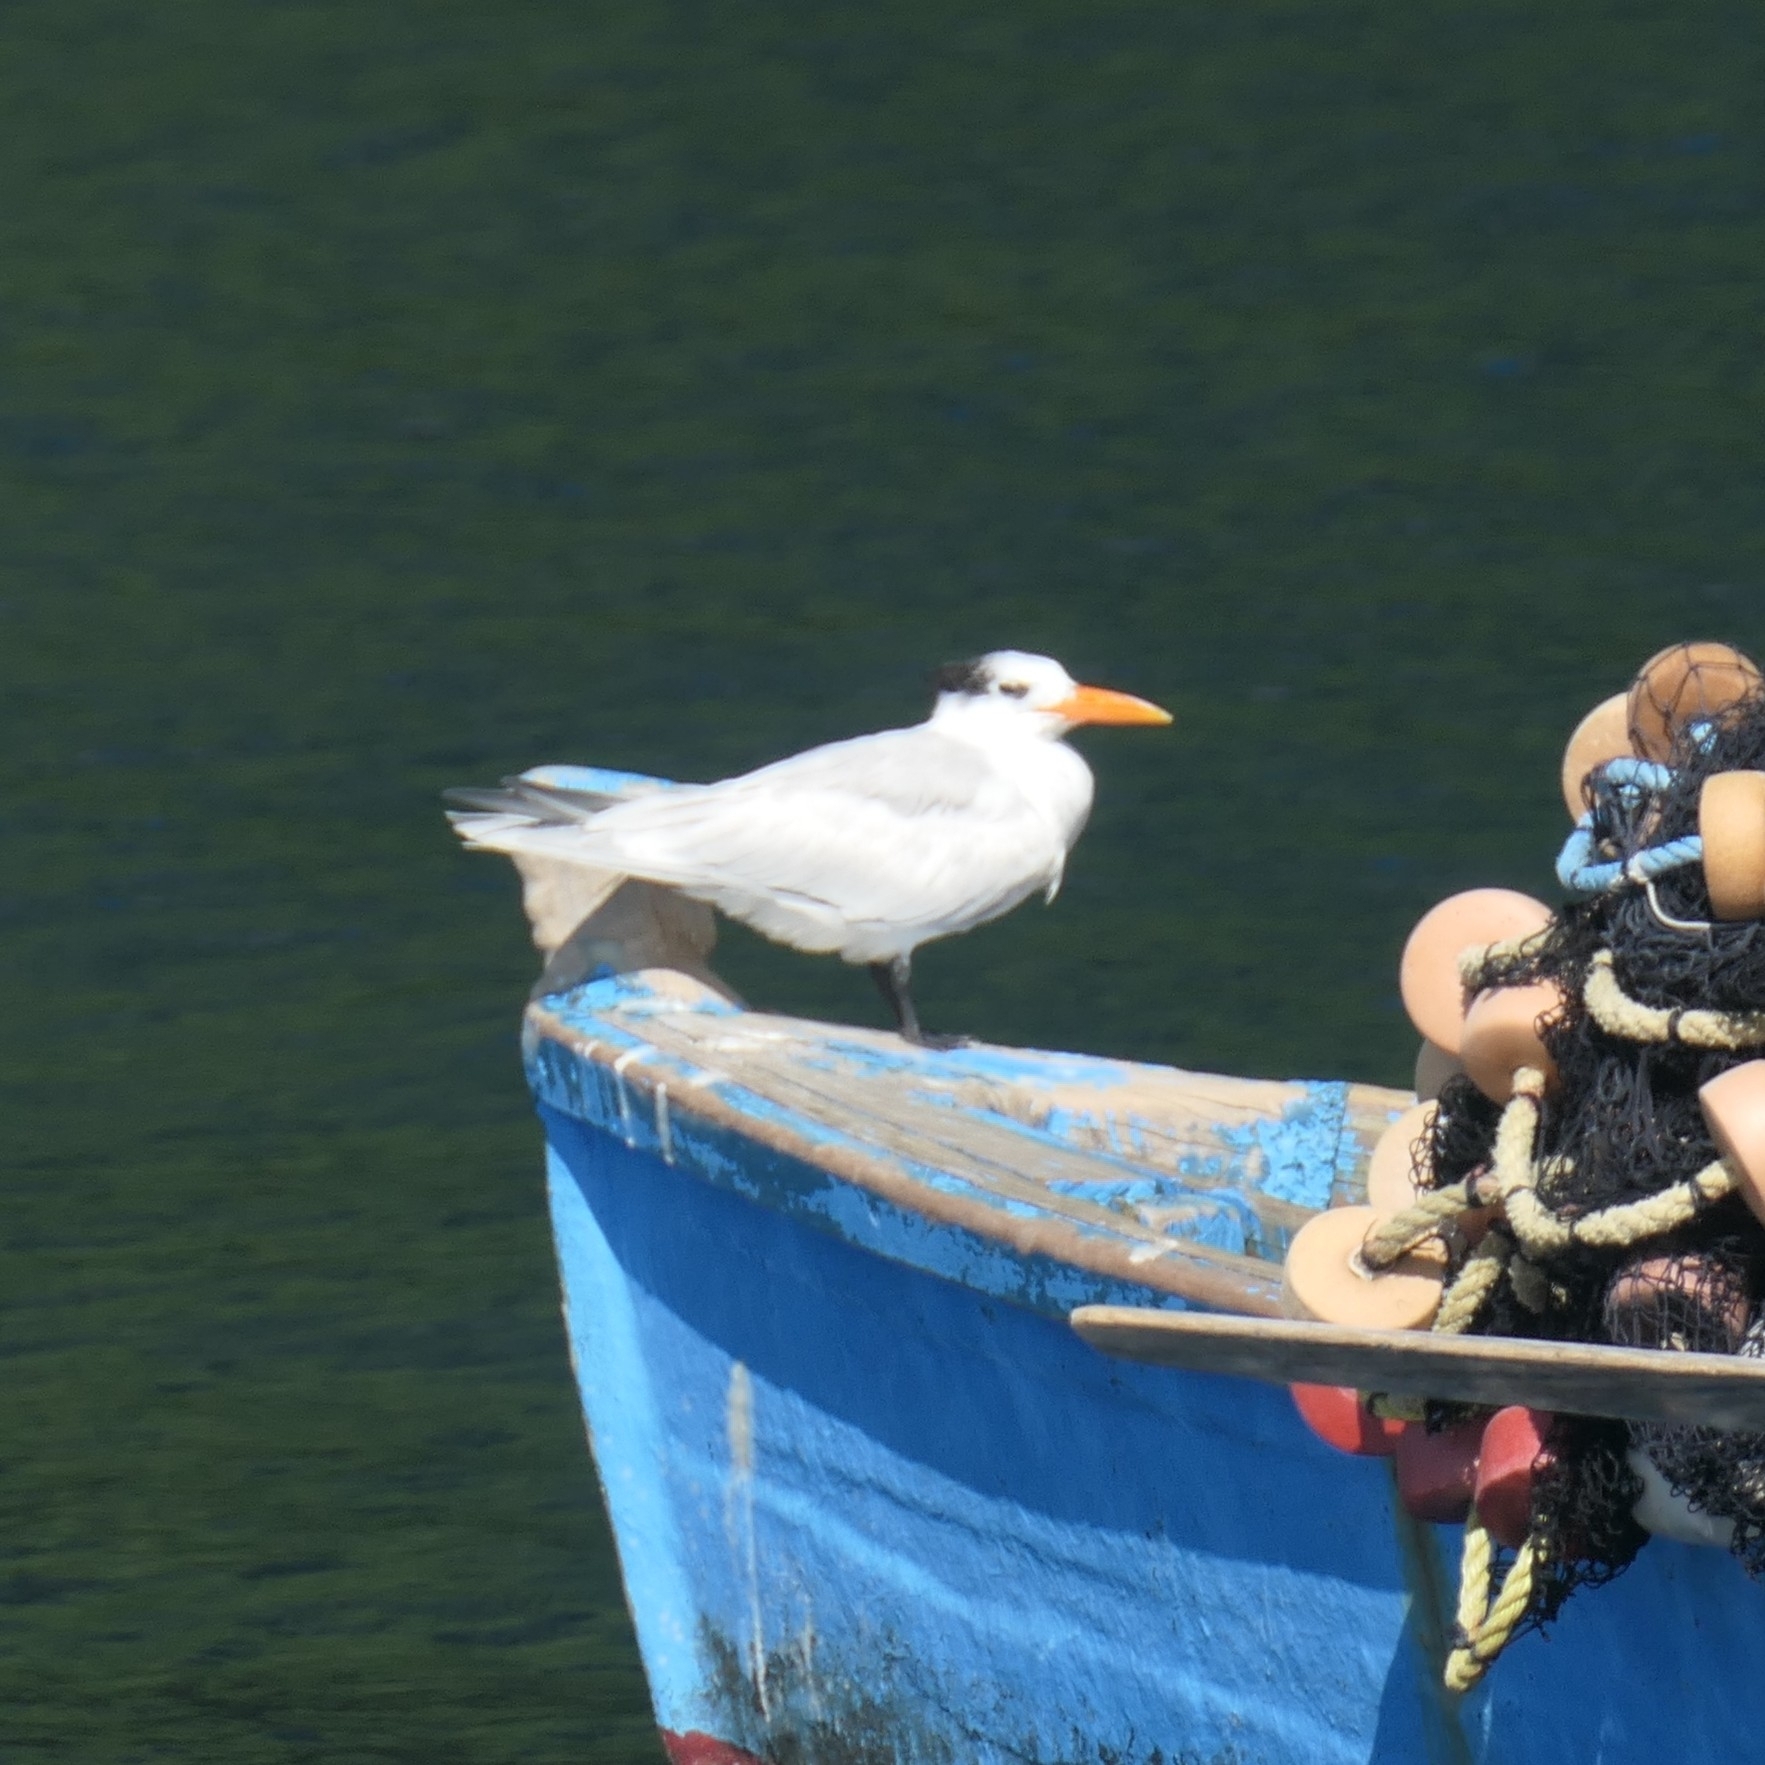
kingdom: Animalia
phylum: Chordata
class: Aves
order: Charadriiformes
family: Laridae
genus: Thalasseus
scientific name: Thalasseus maximus
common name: Royal tern
